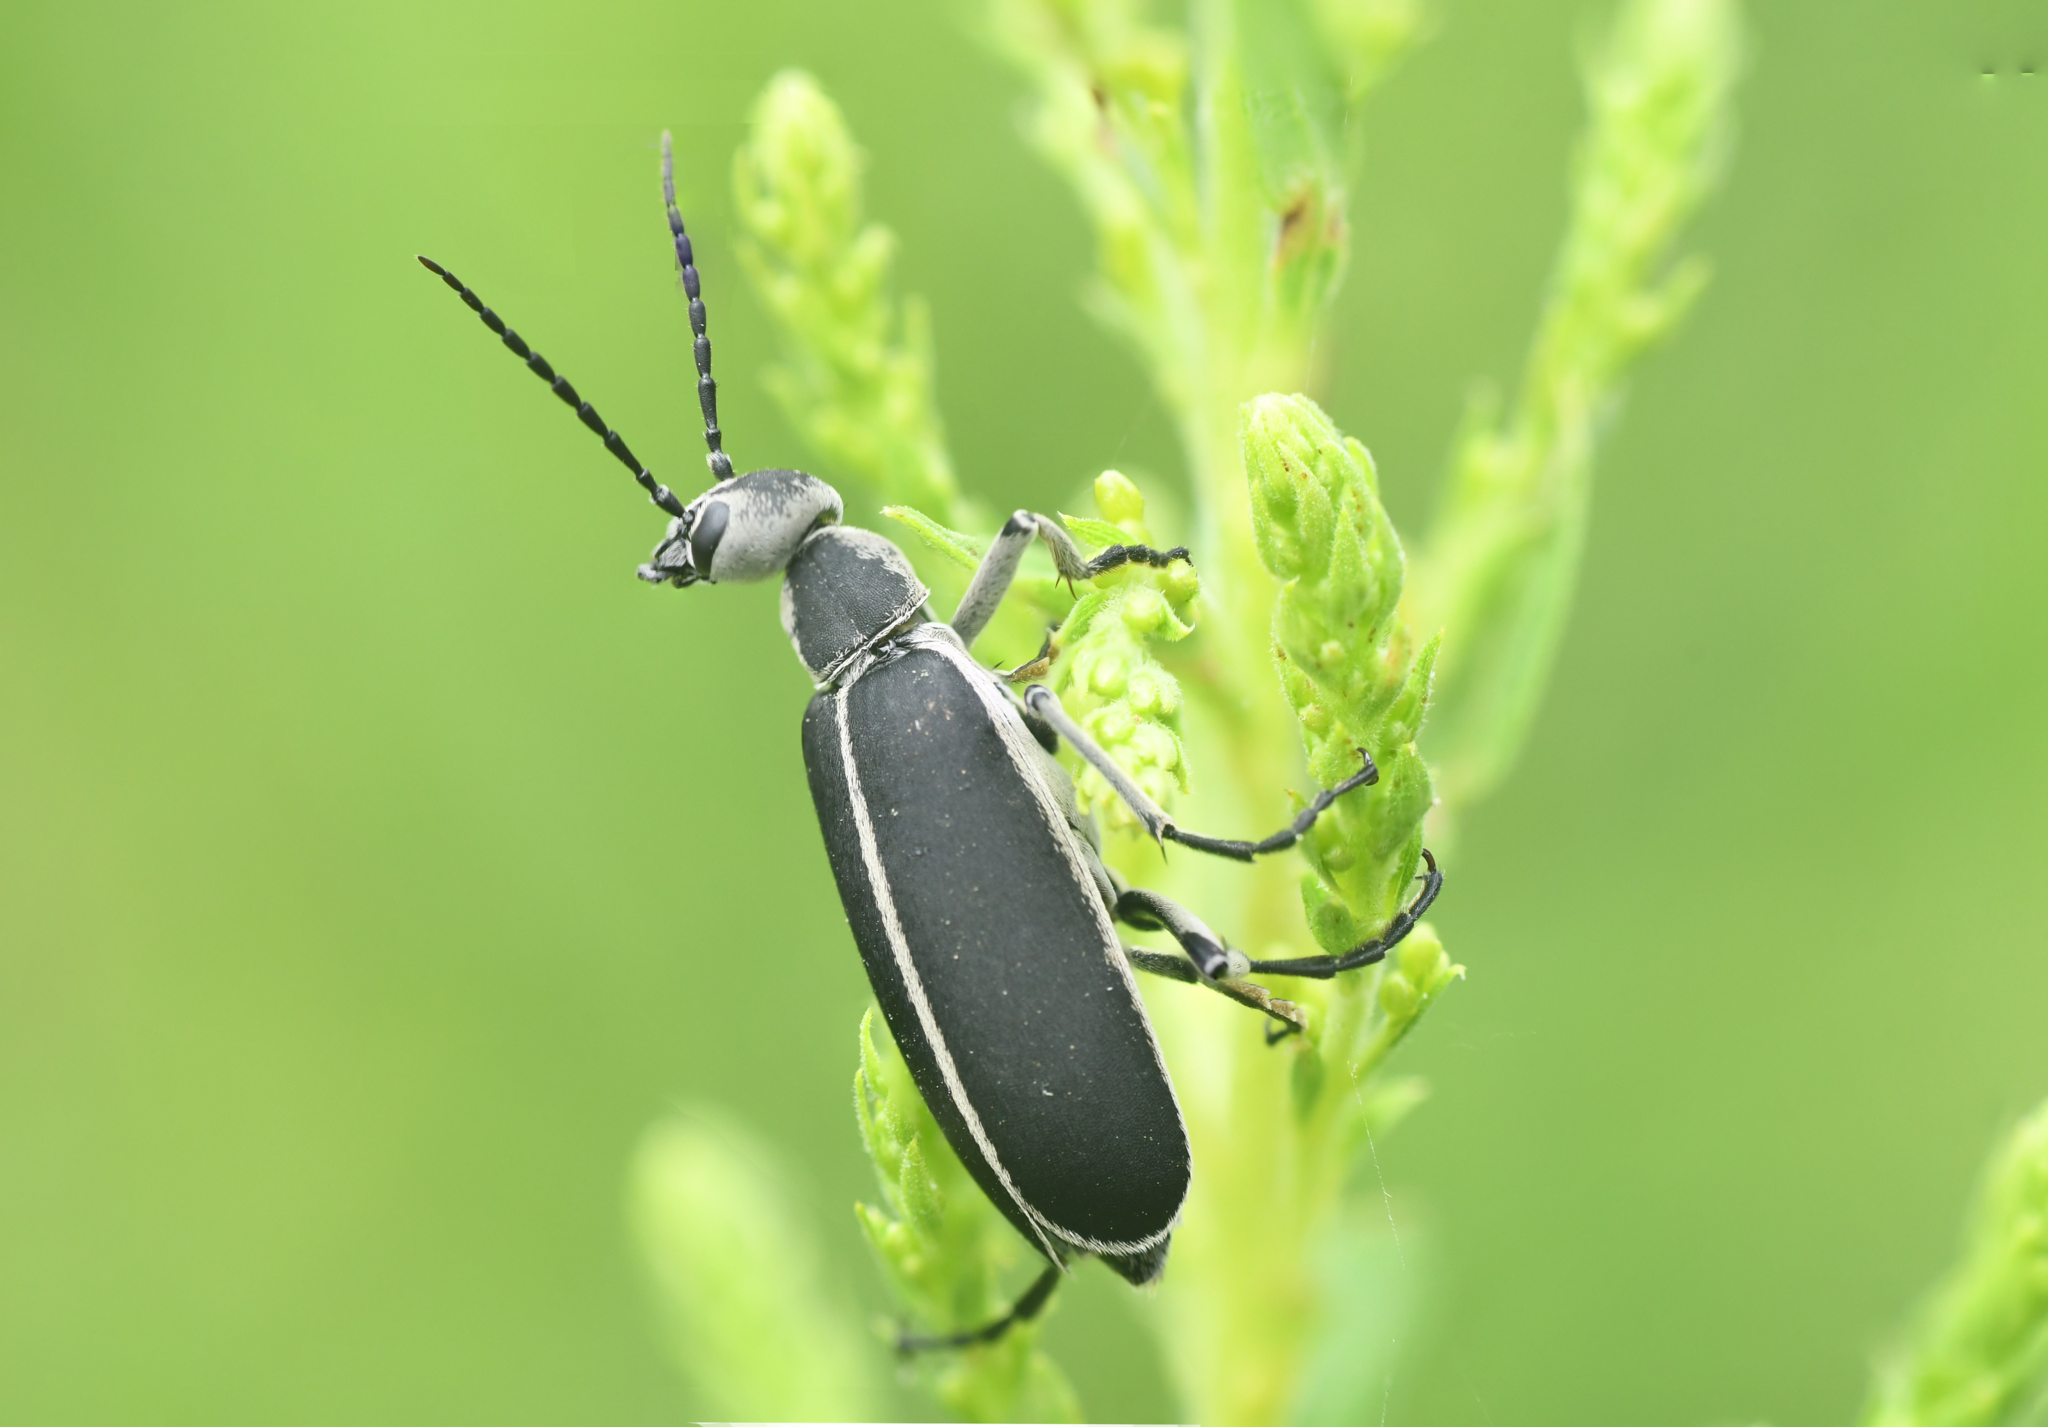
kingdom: Animalia
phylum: Arthropoda
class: Insecta
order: Coleoptera
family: Meloidae
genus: Epicauta
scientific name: Epicauta cinerea
